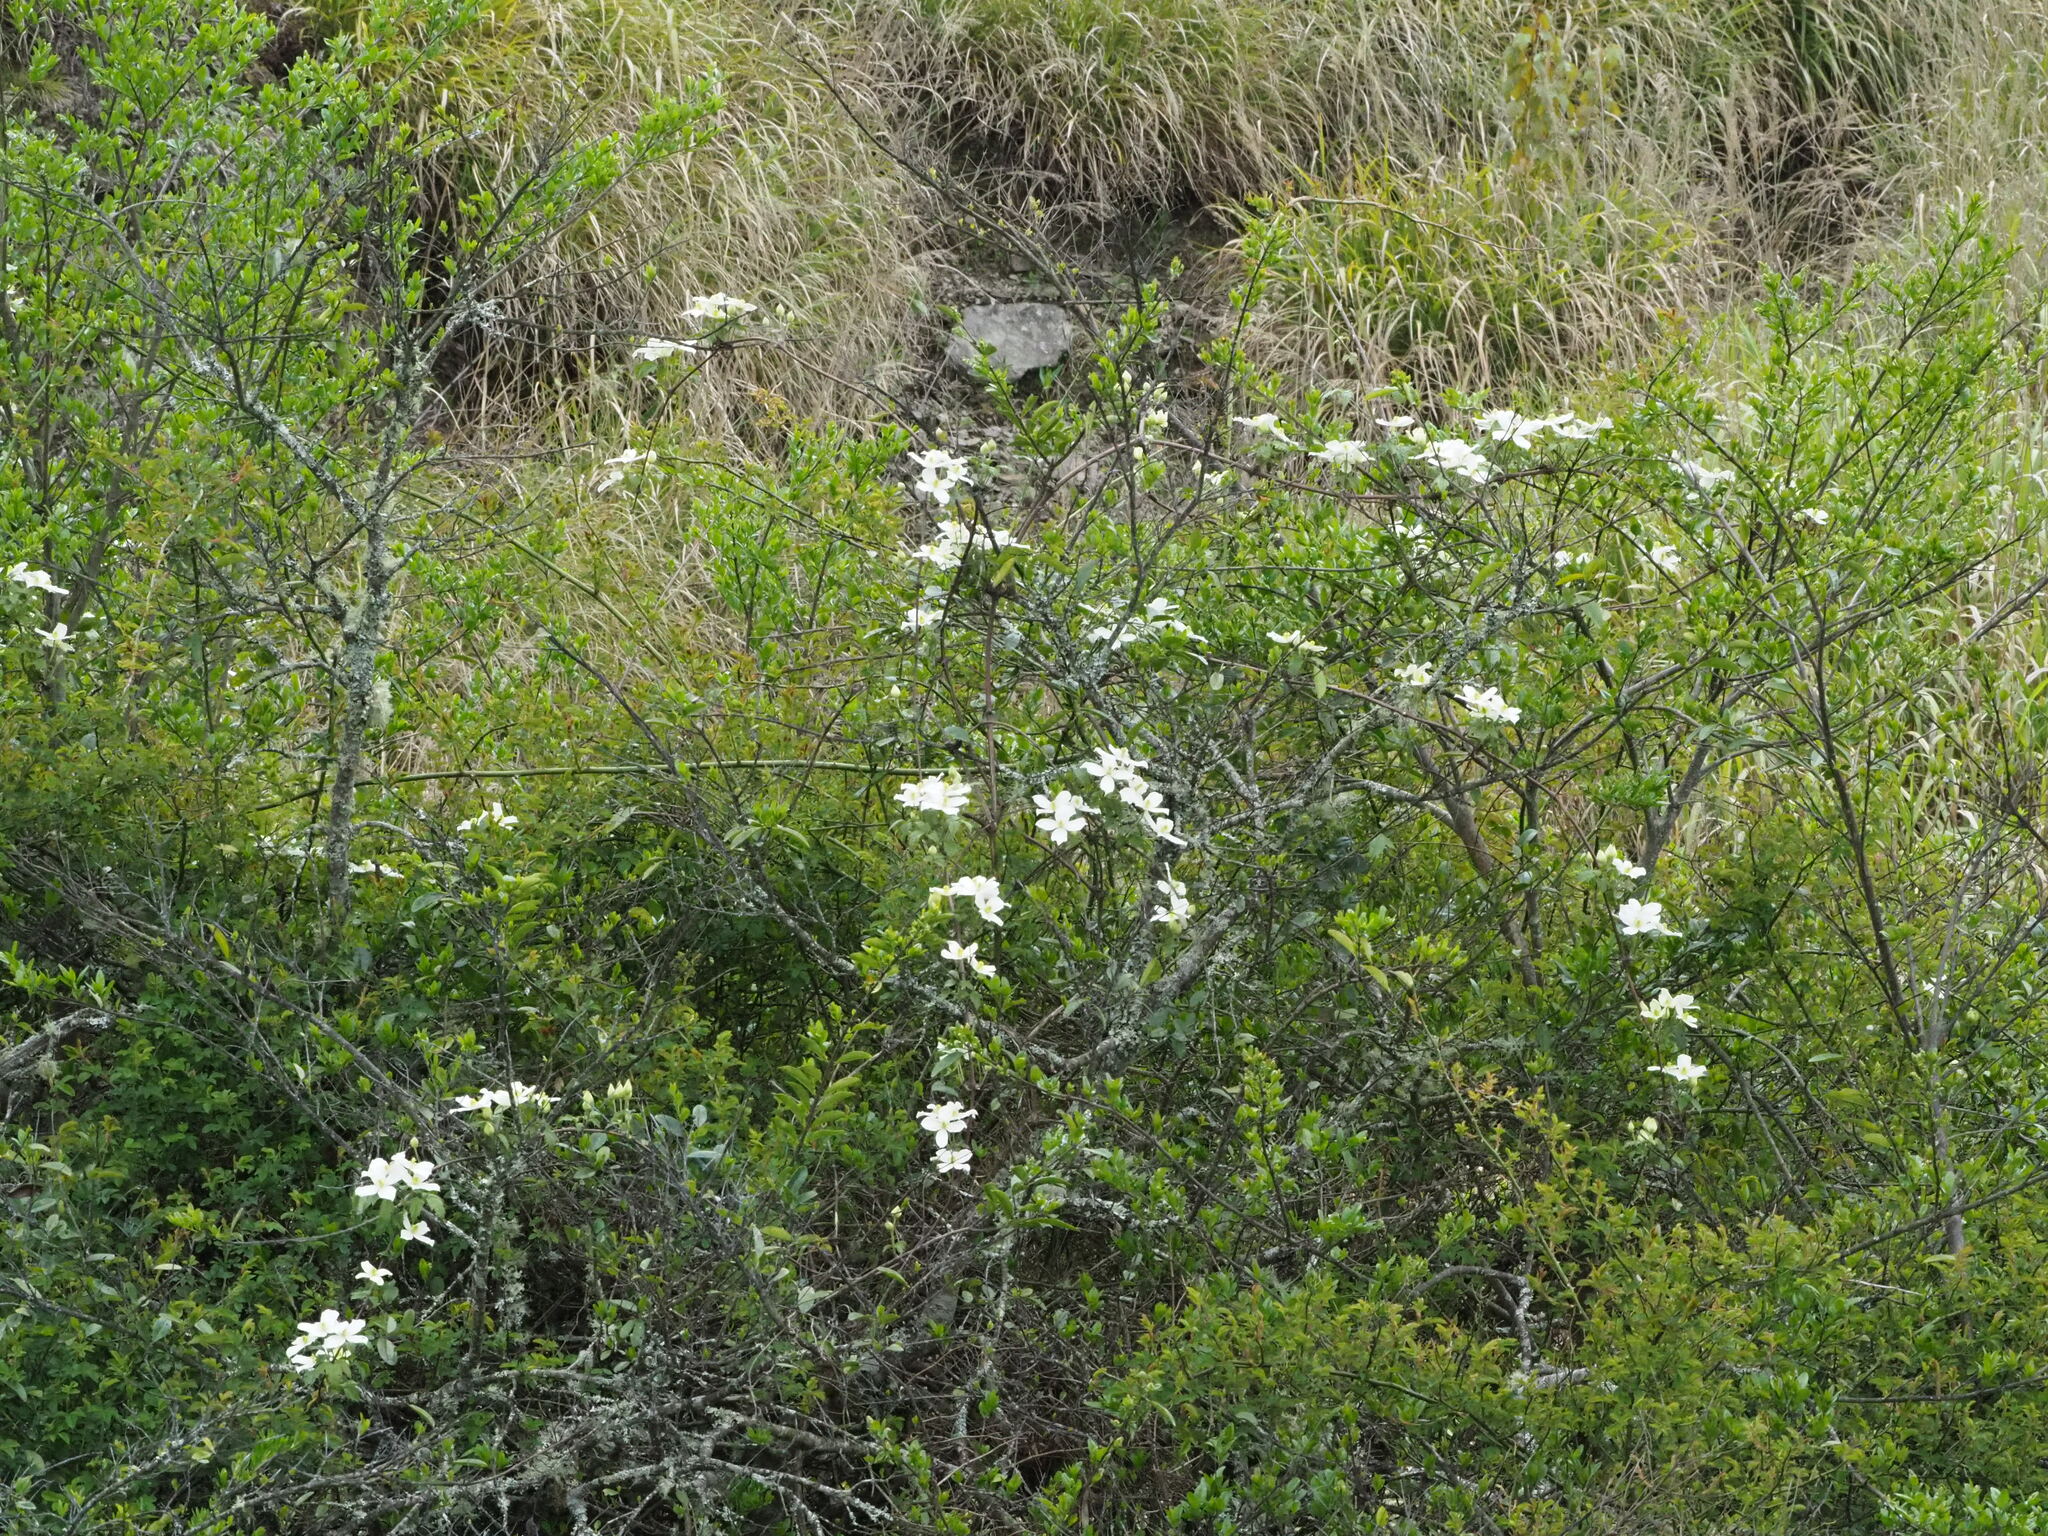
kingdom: Plantae
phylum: Tracheophyta
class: Magnoliopsida
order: Ranunculales
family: Ranunculaceae
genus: Clematis
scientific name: Clematis montana
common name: Himalayan clematis
